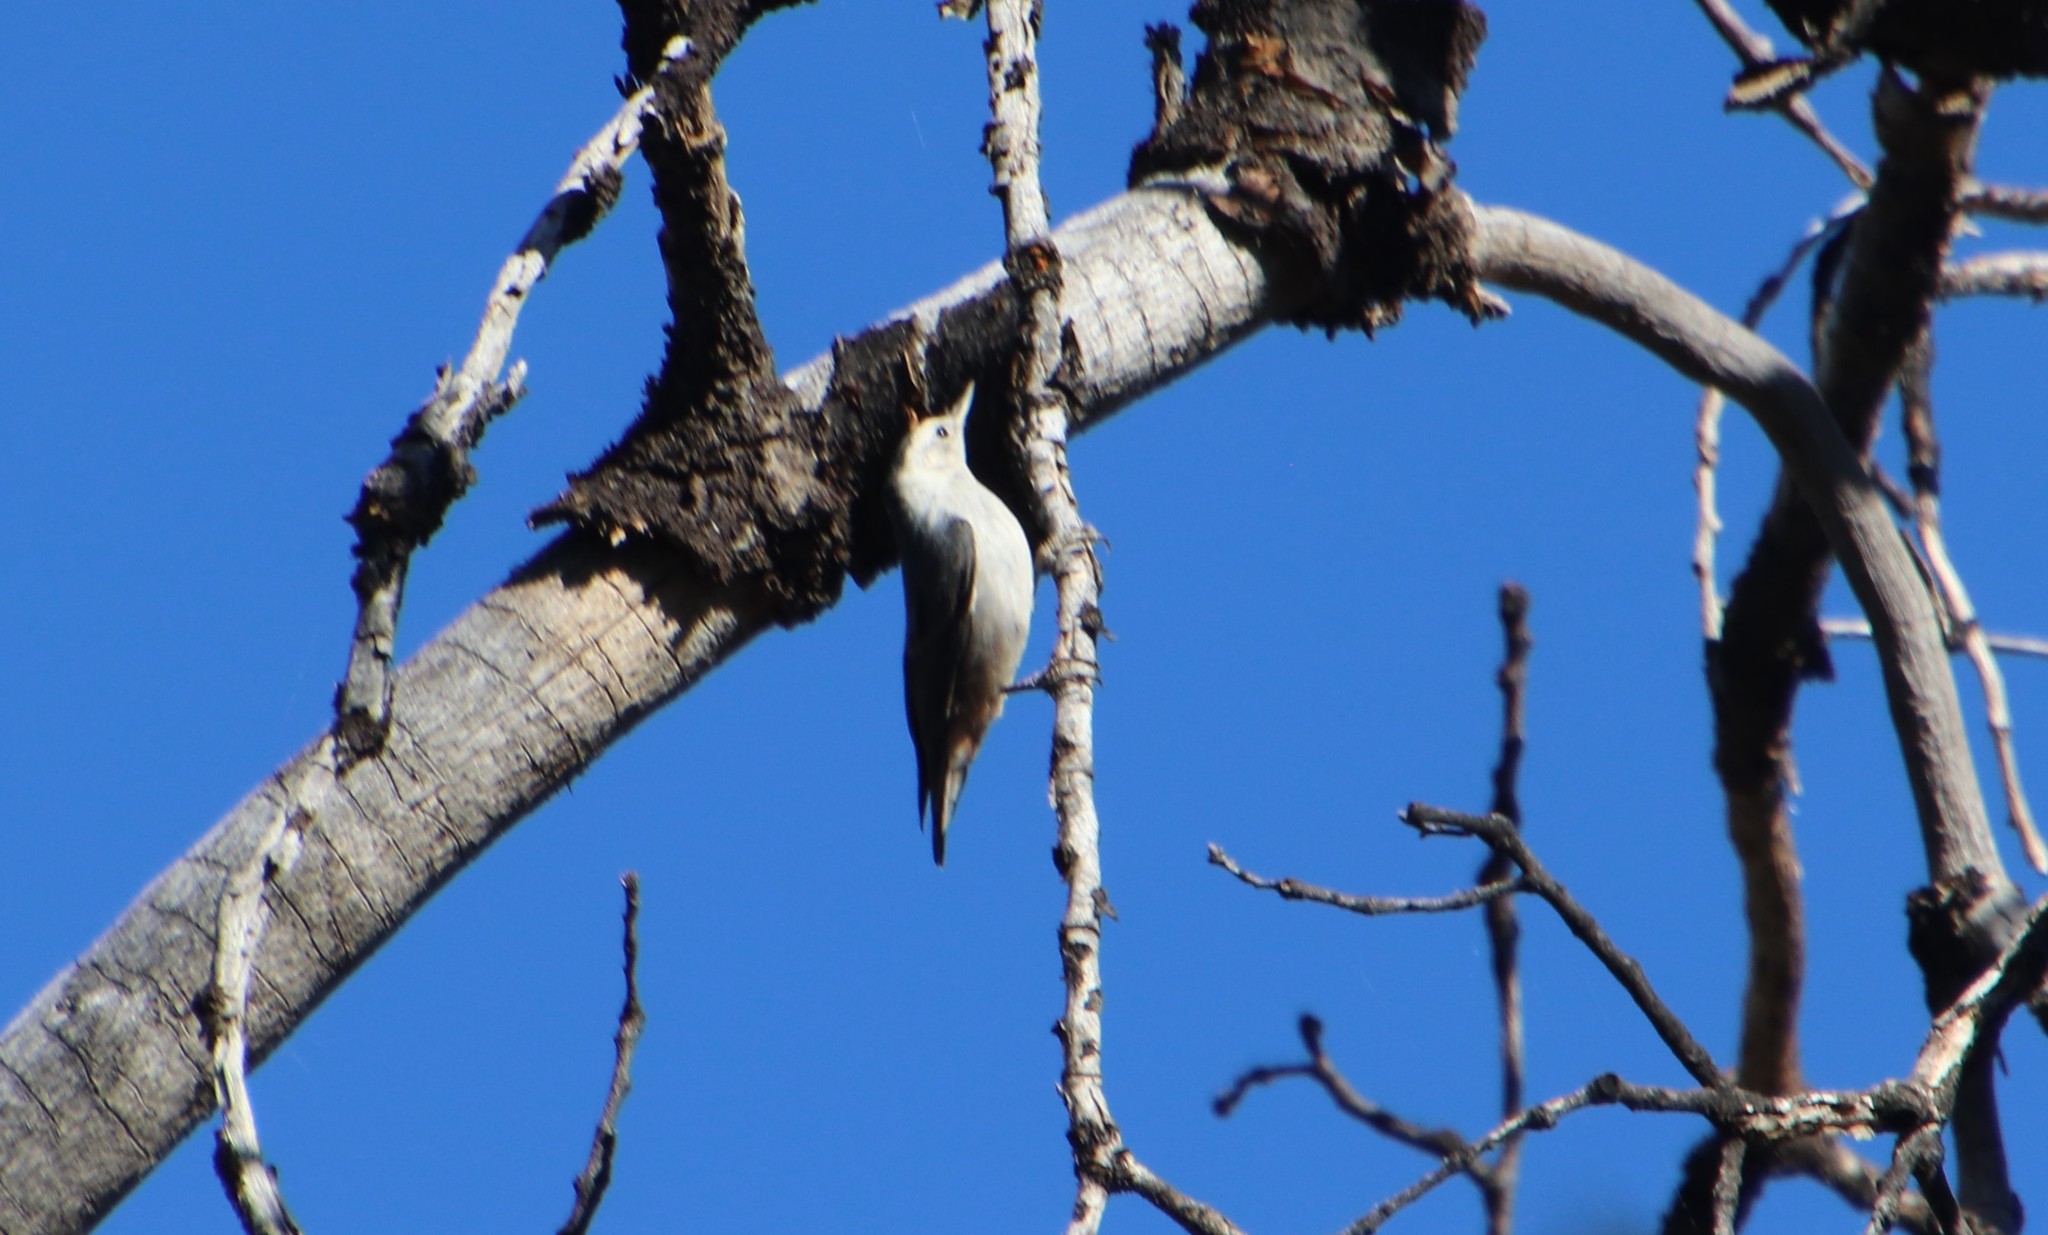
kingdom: Animalia
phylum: Chordata
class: Aves
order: Passeriformes
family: Sittidae
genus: Sitta
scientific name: Sitta carolinensis
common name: White-breasted nuthatch
